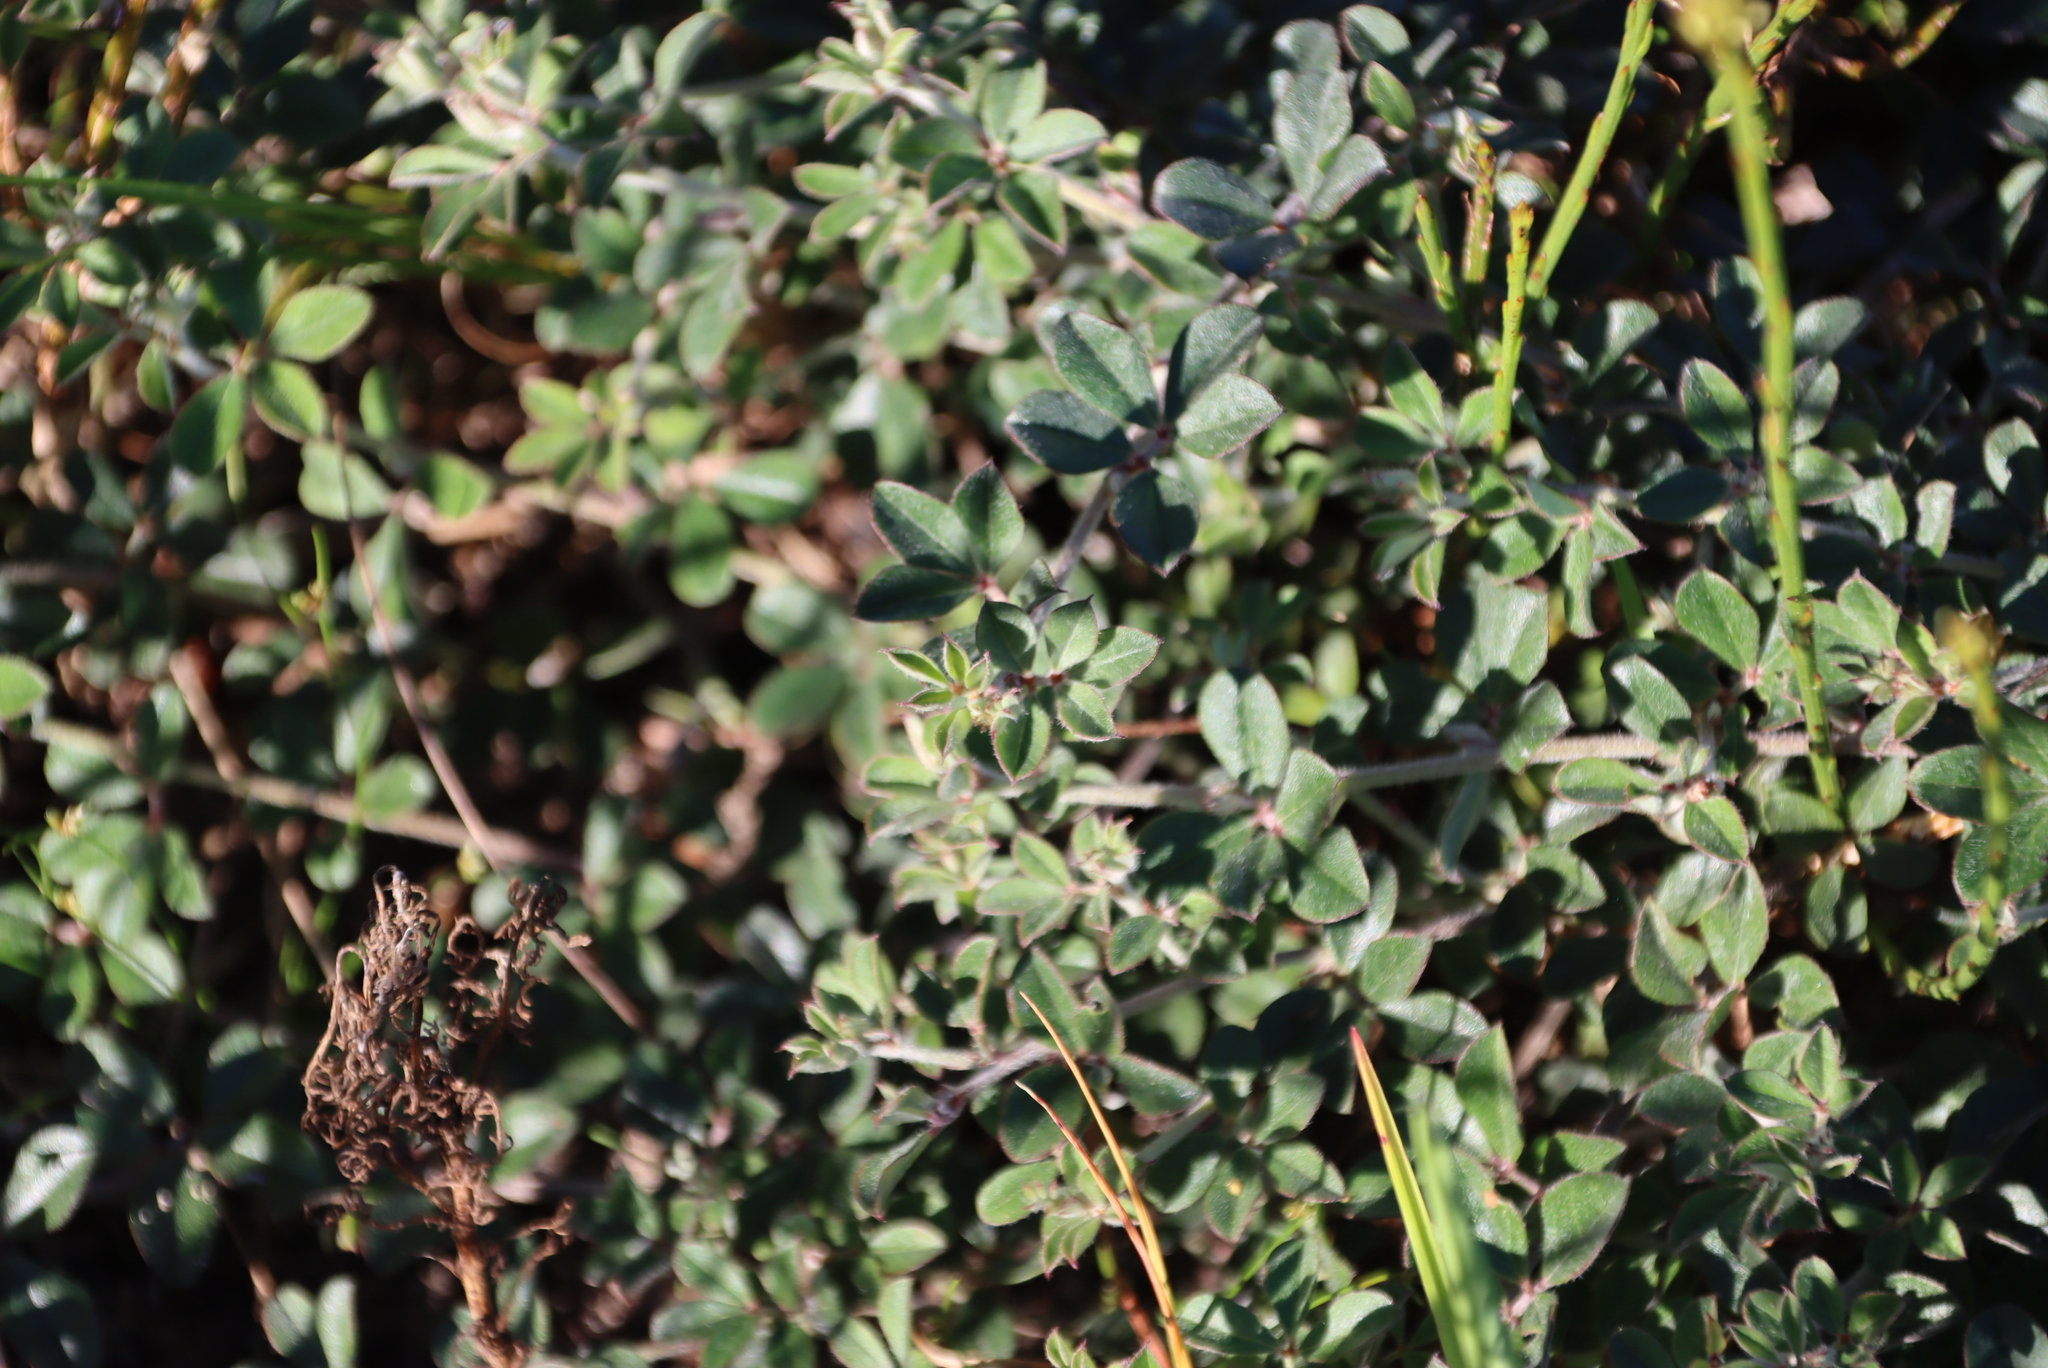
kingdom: Plantae
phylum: Tracheophyta
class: Magnoliopsida
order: Fabales
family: Fabaceae
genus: Indigofera
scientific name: Indigofera mauritanica
